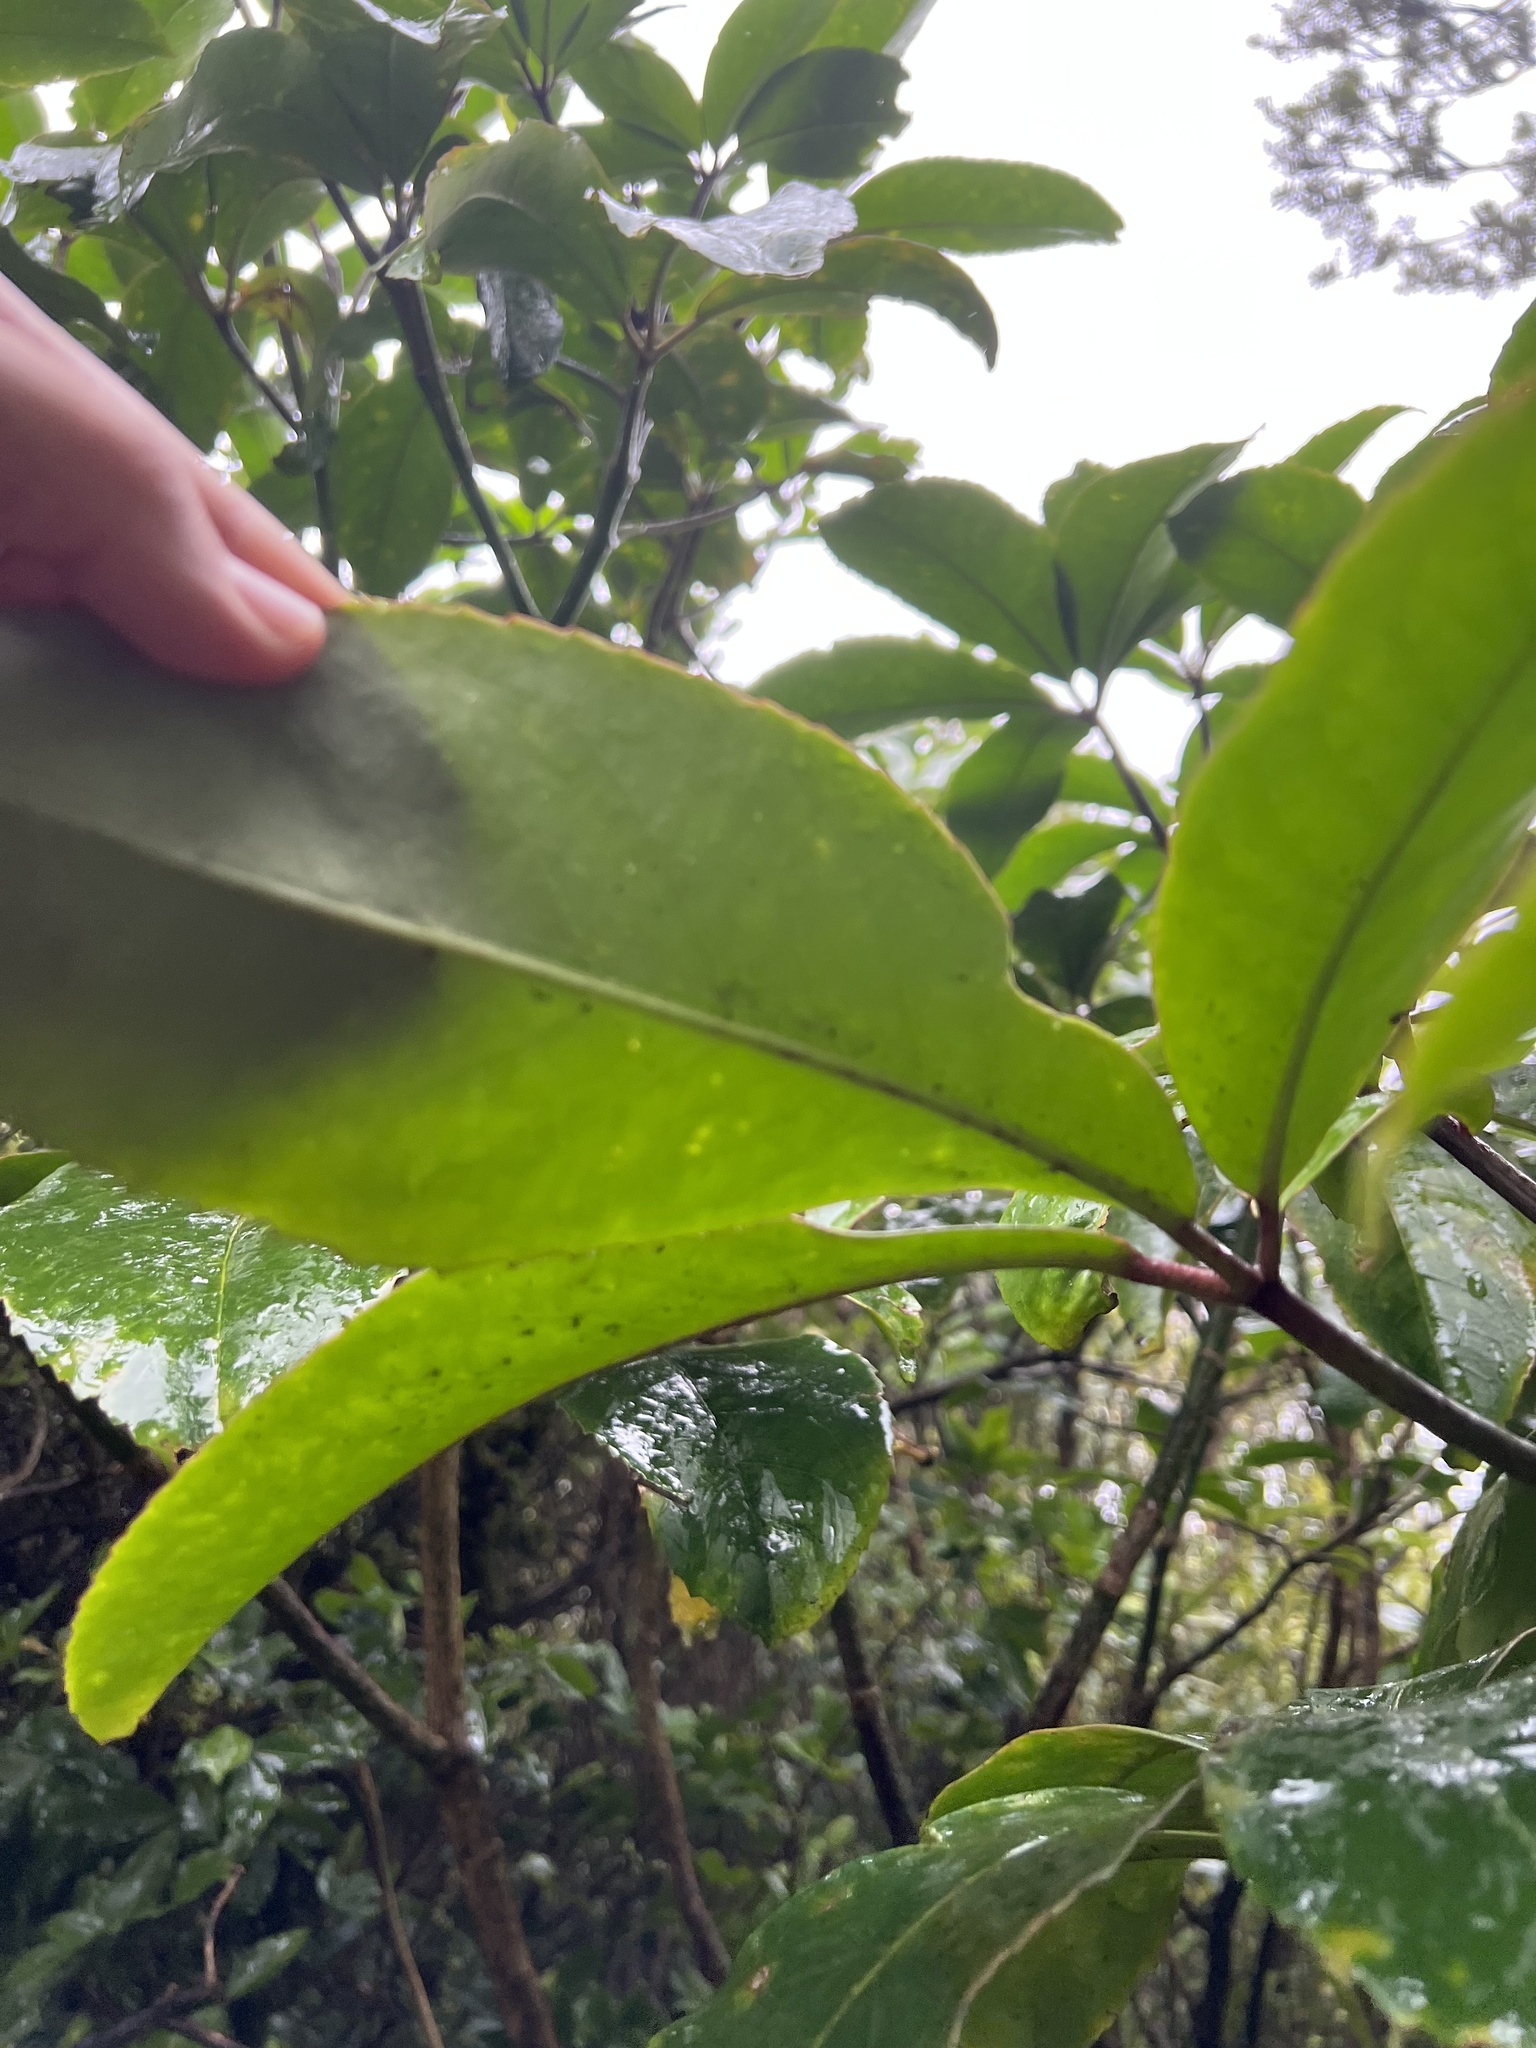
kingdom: Plantae
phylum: Tracheophyta
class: Magnoliopsida
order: Apiales
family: Araliaceae
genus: Neopanax
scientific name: Neopanax laetus
